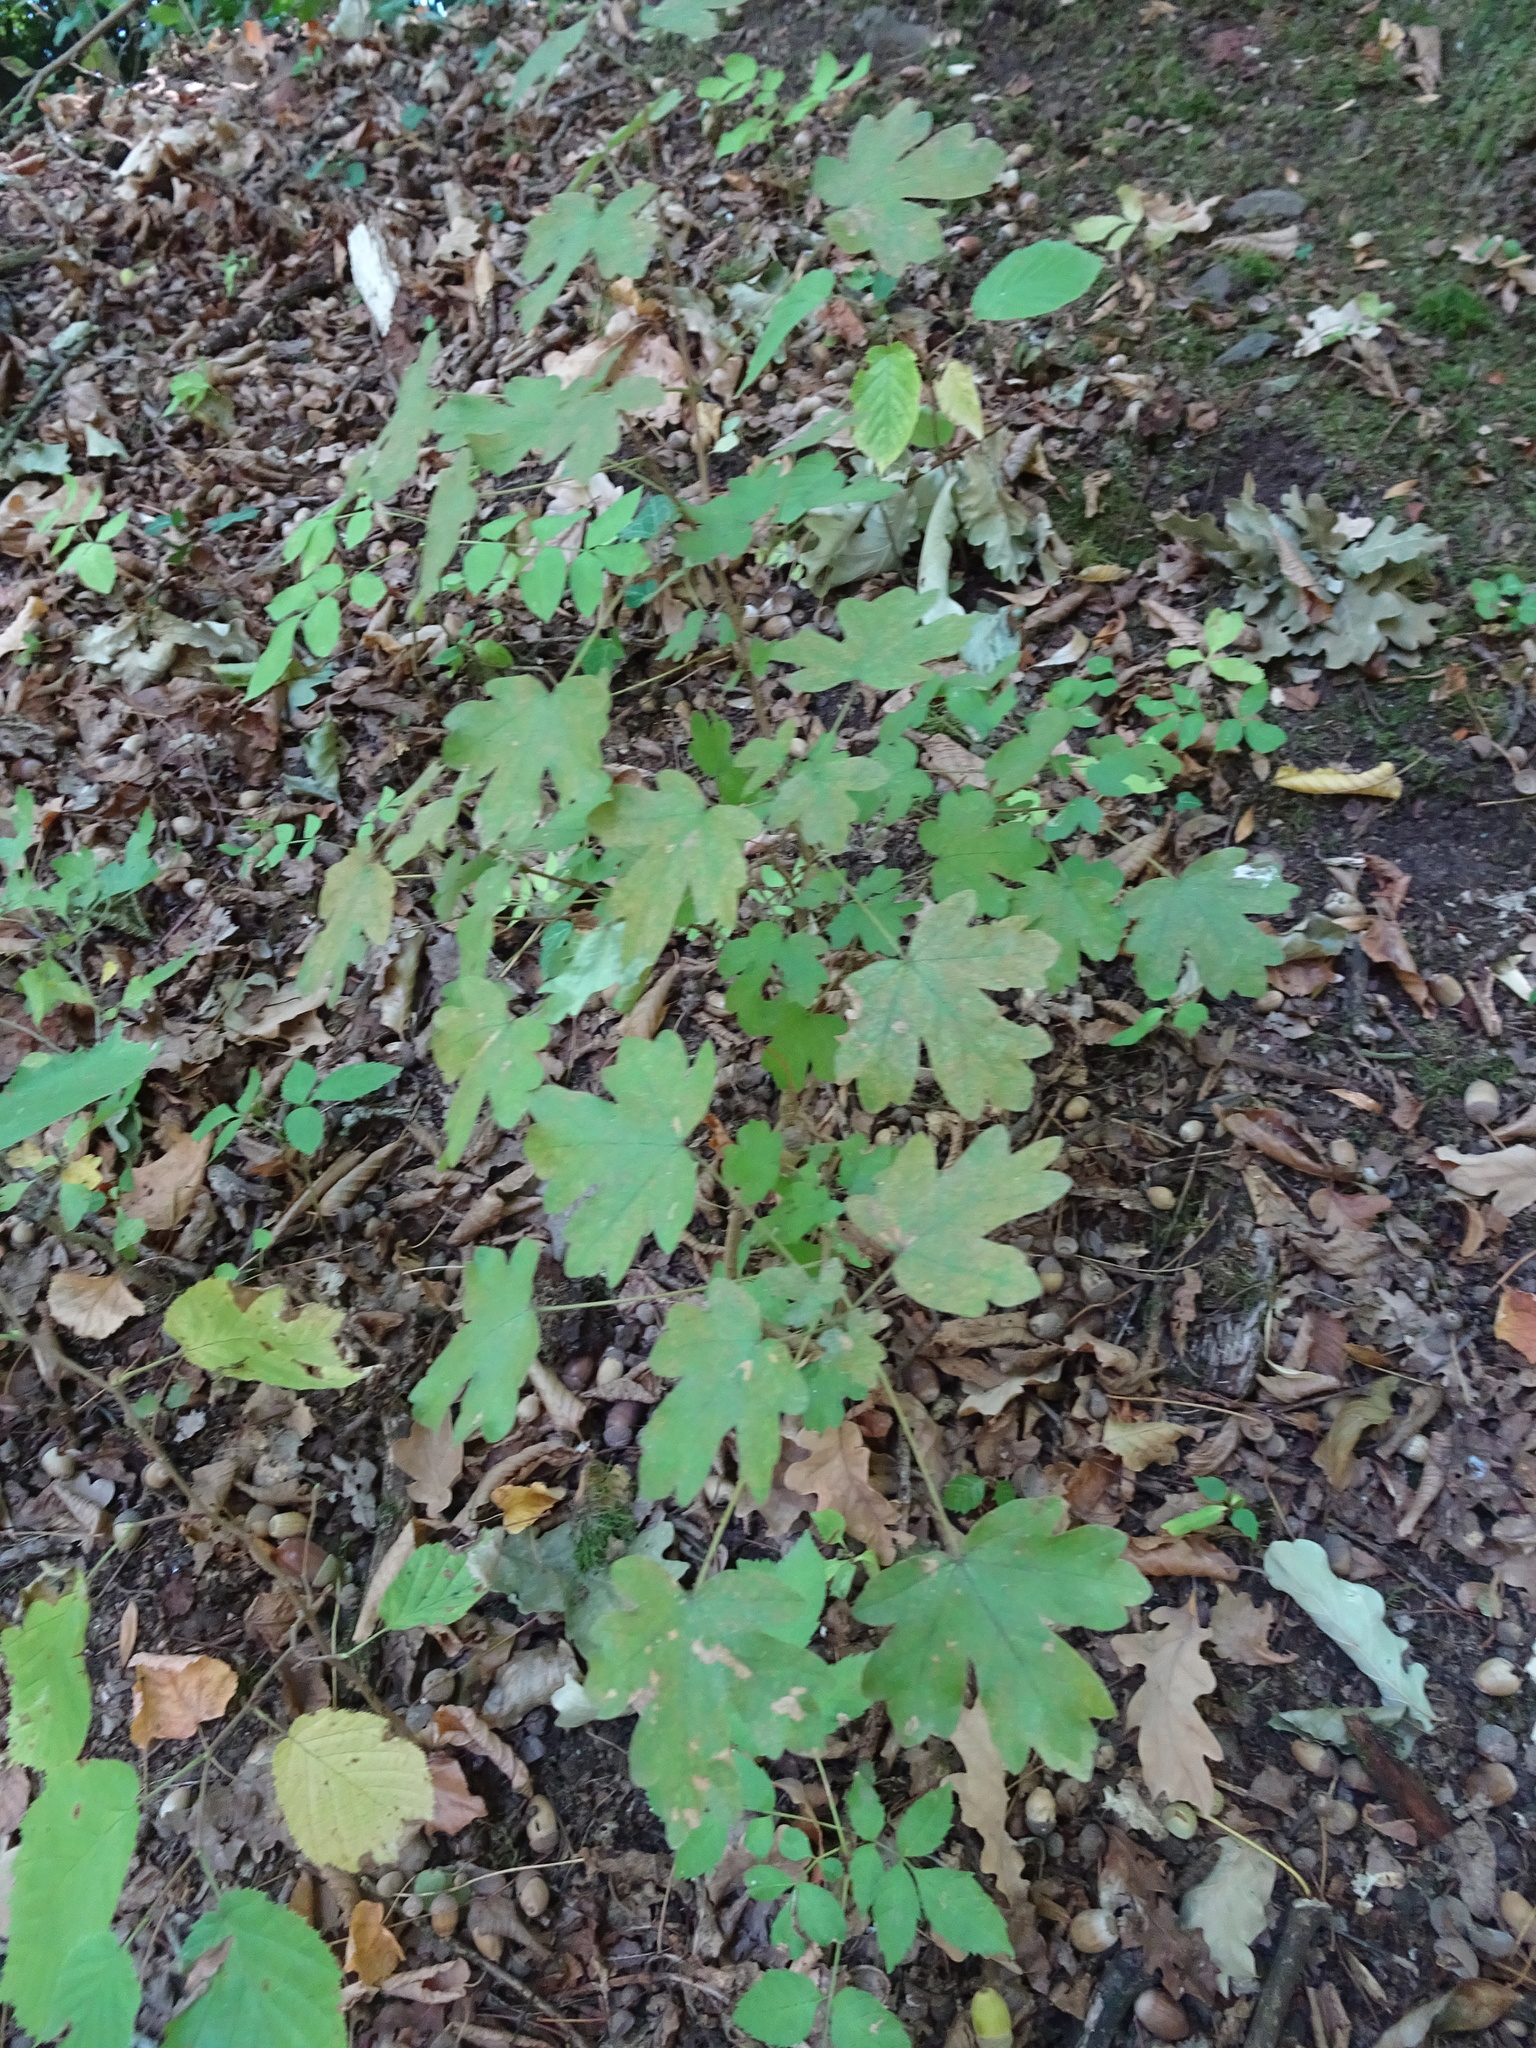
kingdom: Plantae
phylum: Tracheophyta
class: Magnoliopsida
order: Sapindales
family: Sapindaceae
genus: Acer
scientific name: Acer campestre
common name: Field maple
